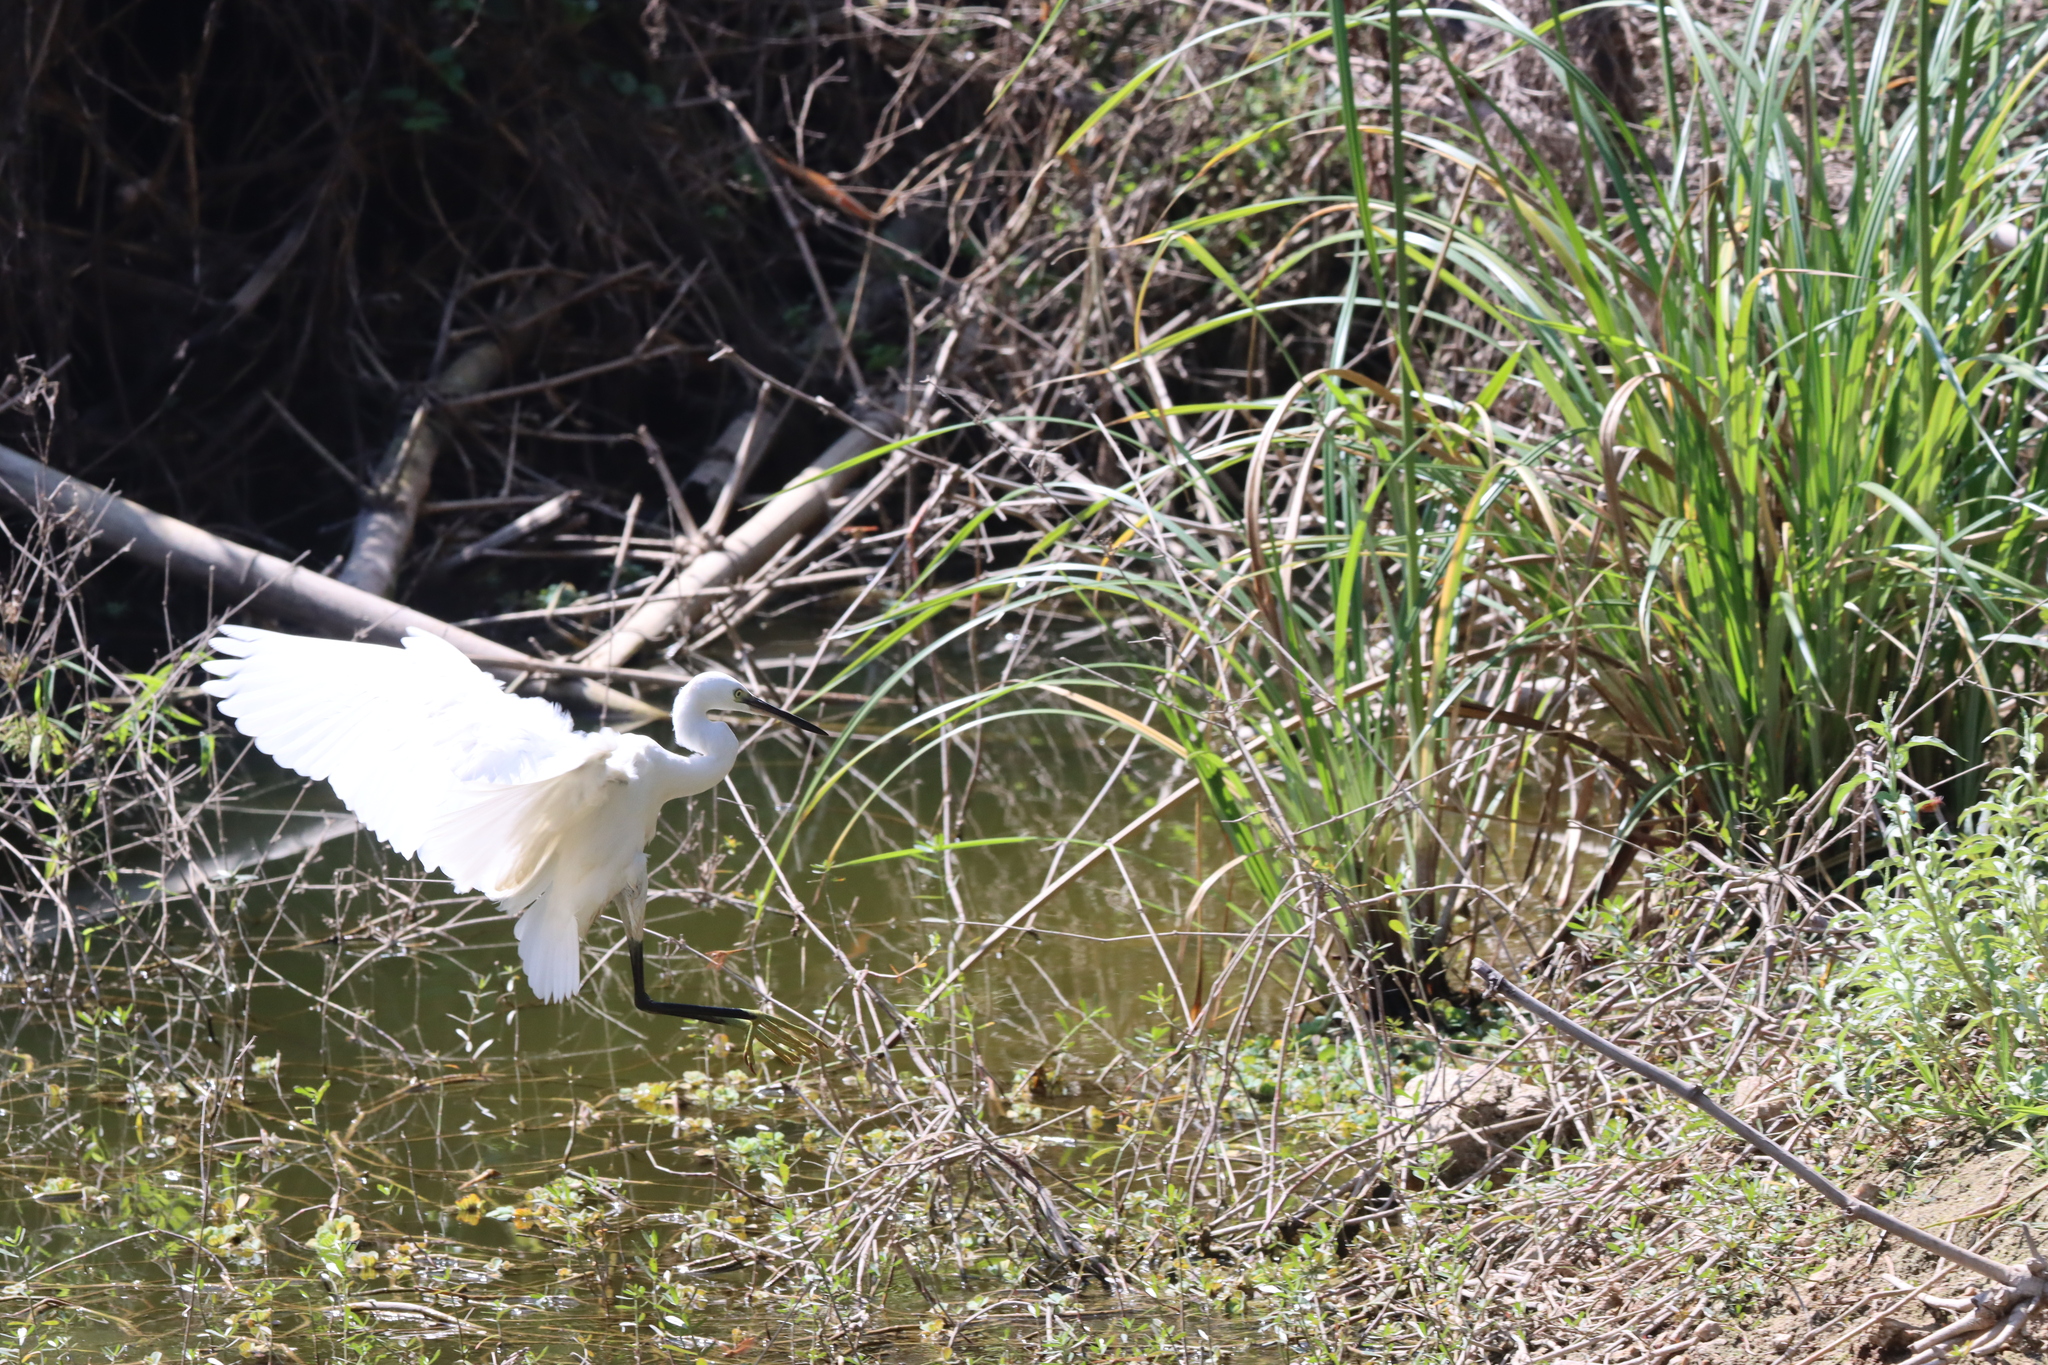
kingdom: Animalia
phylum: Chordata
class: Aves
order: Pelecaniformes
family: Ardeidae
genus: Egretta
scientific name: Egretta garzetta
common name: Little egret
